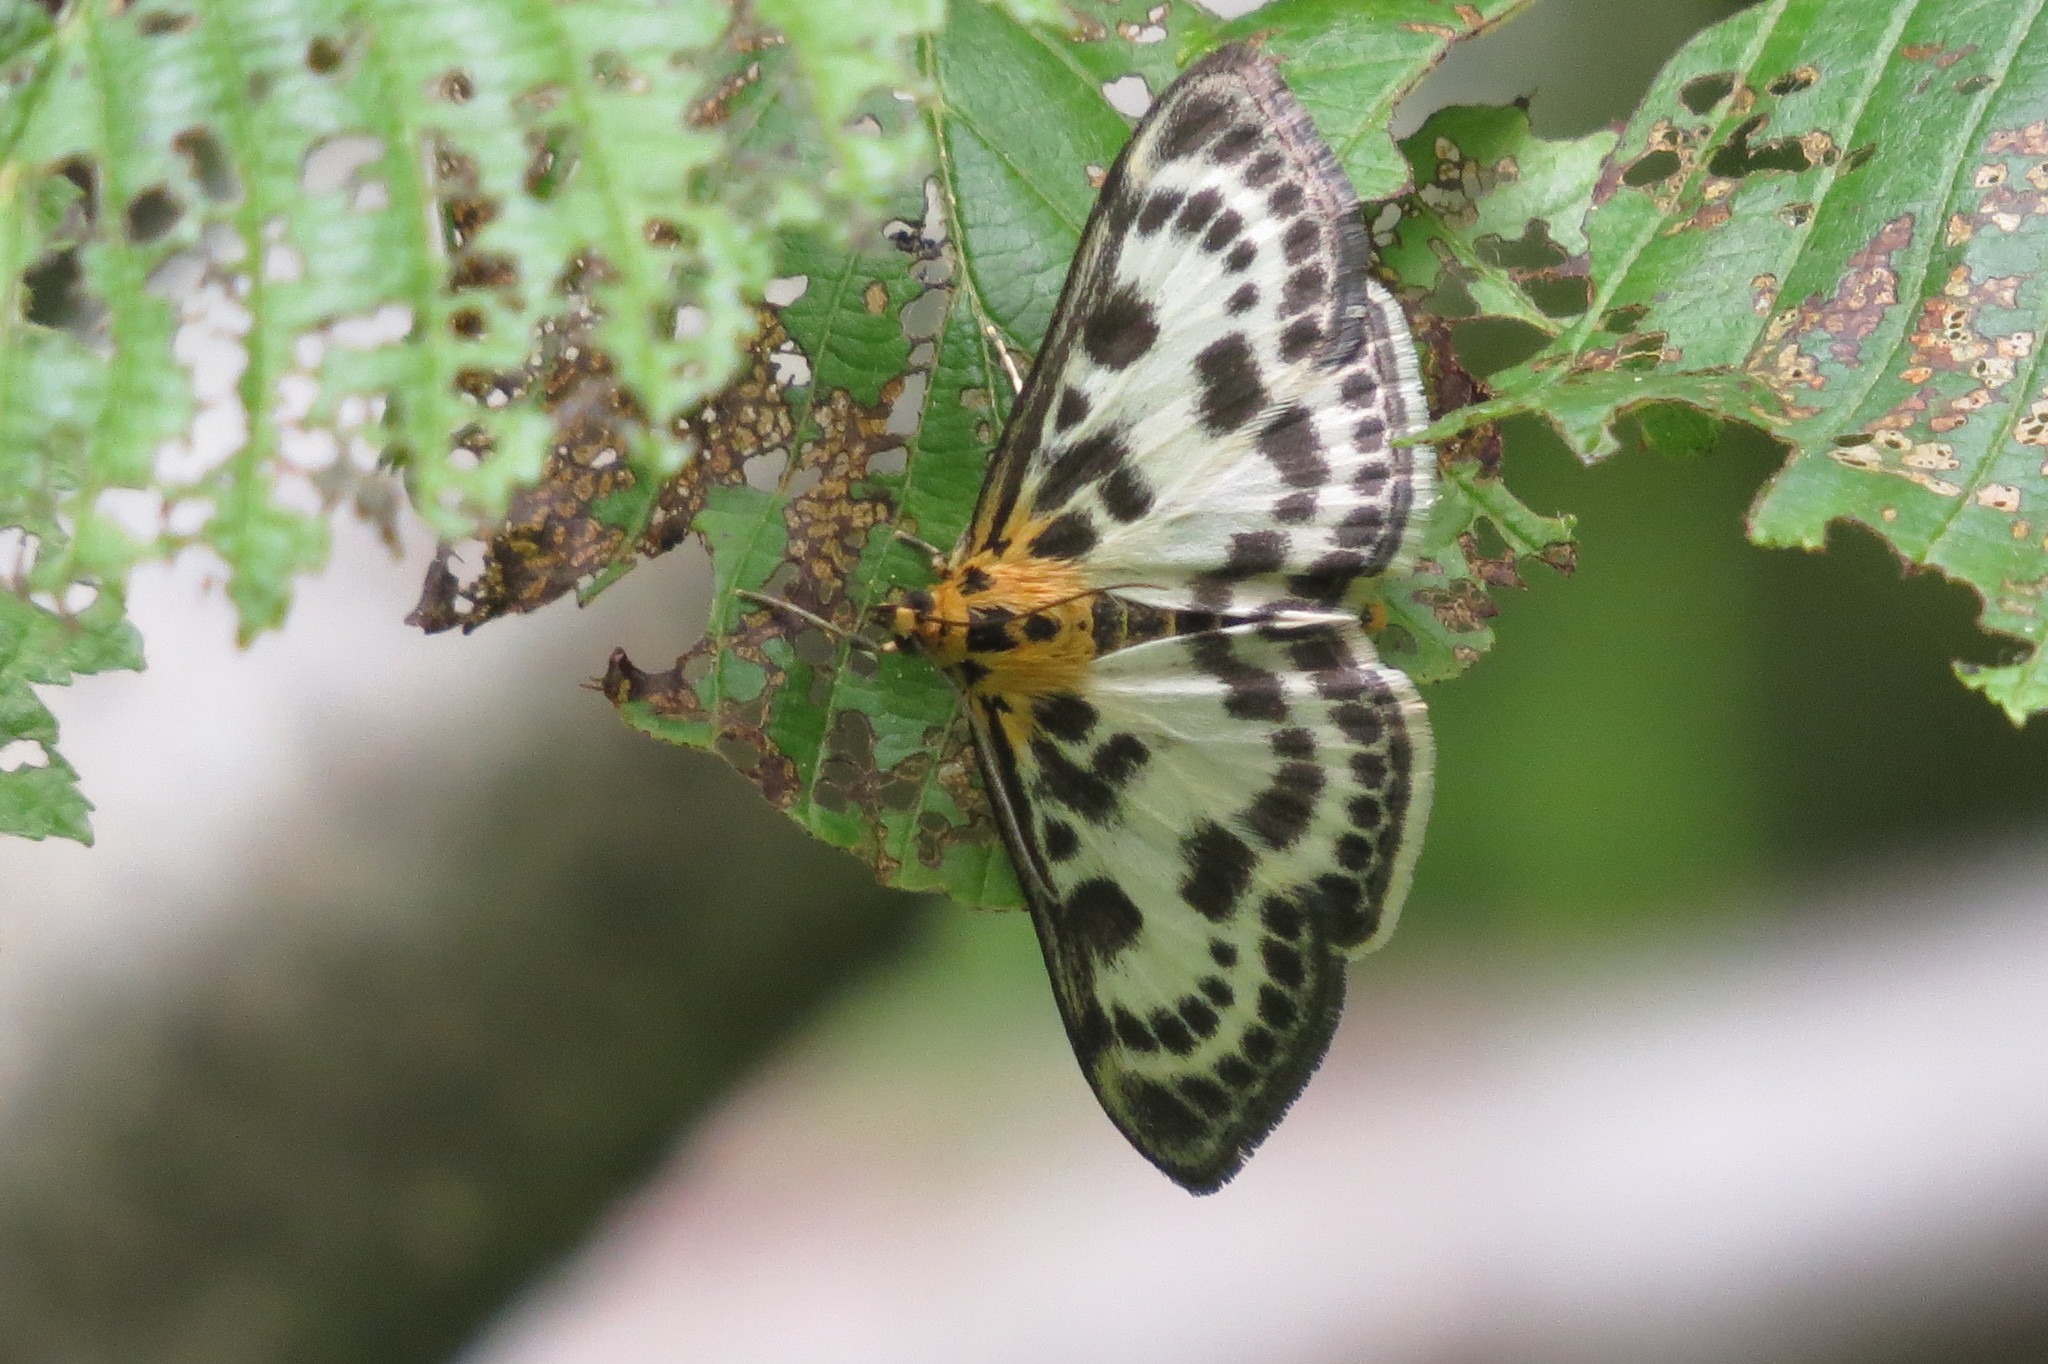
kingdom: Animalia
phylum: Arthropoda
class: Insecta
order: Lepidoptera
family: Crambidae
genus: Anania
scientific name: Anania hortulata
